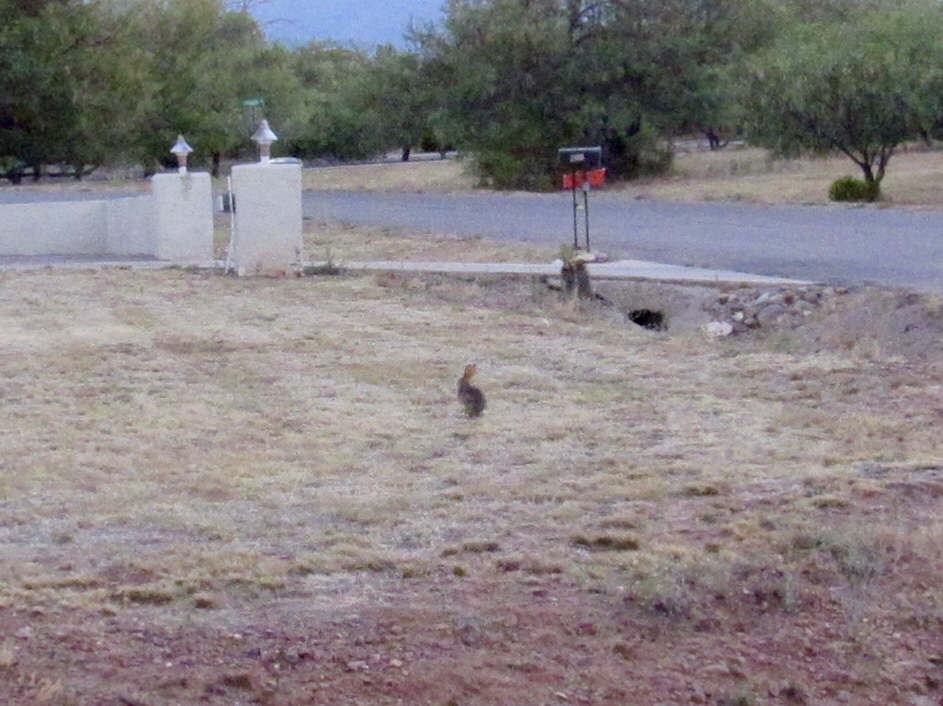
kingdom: Animalia
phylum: Chordata
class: Mammalia
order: Lagomorpha
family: Leporidae
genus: Sylvilagus
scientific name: Sylvilagus audubonii
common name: Desert cottontail
